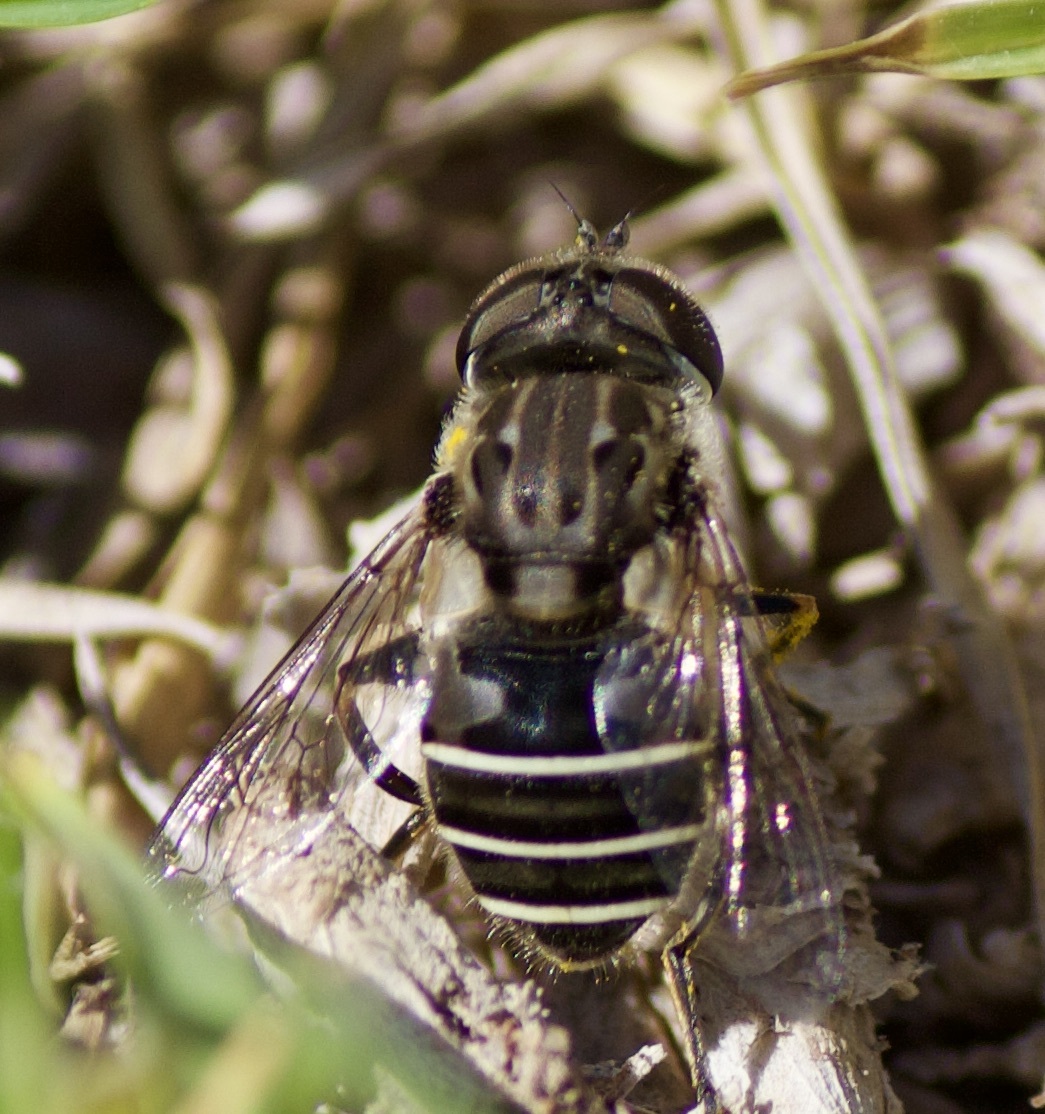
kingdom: Animalia
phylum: Arthropoda
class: Insecta
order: Diptera
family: Syrphidae
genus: Palpada
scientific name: Palpada meigenii
